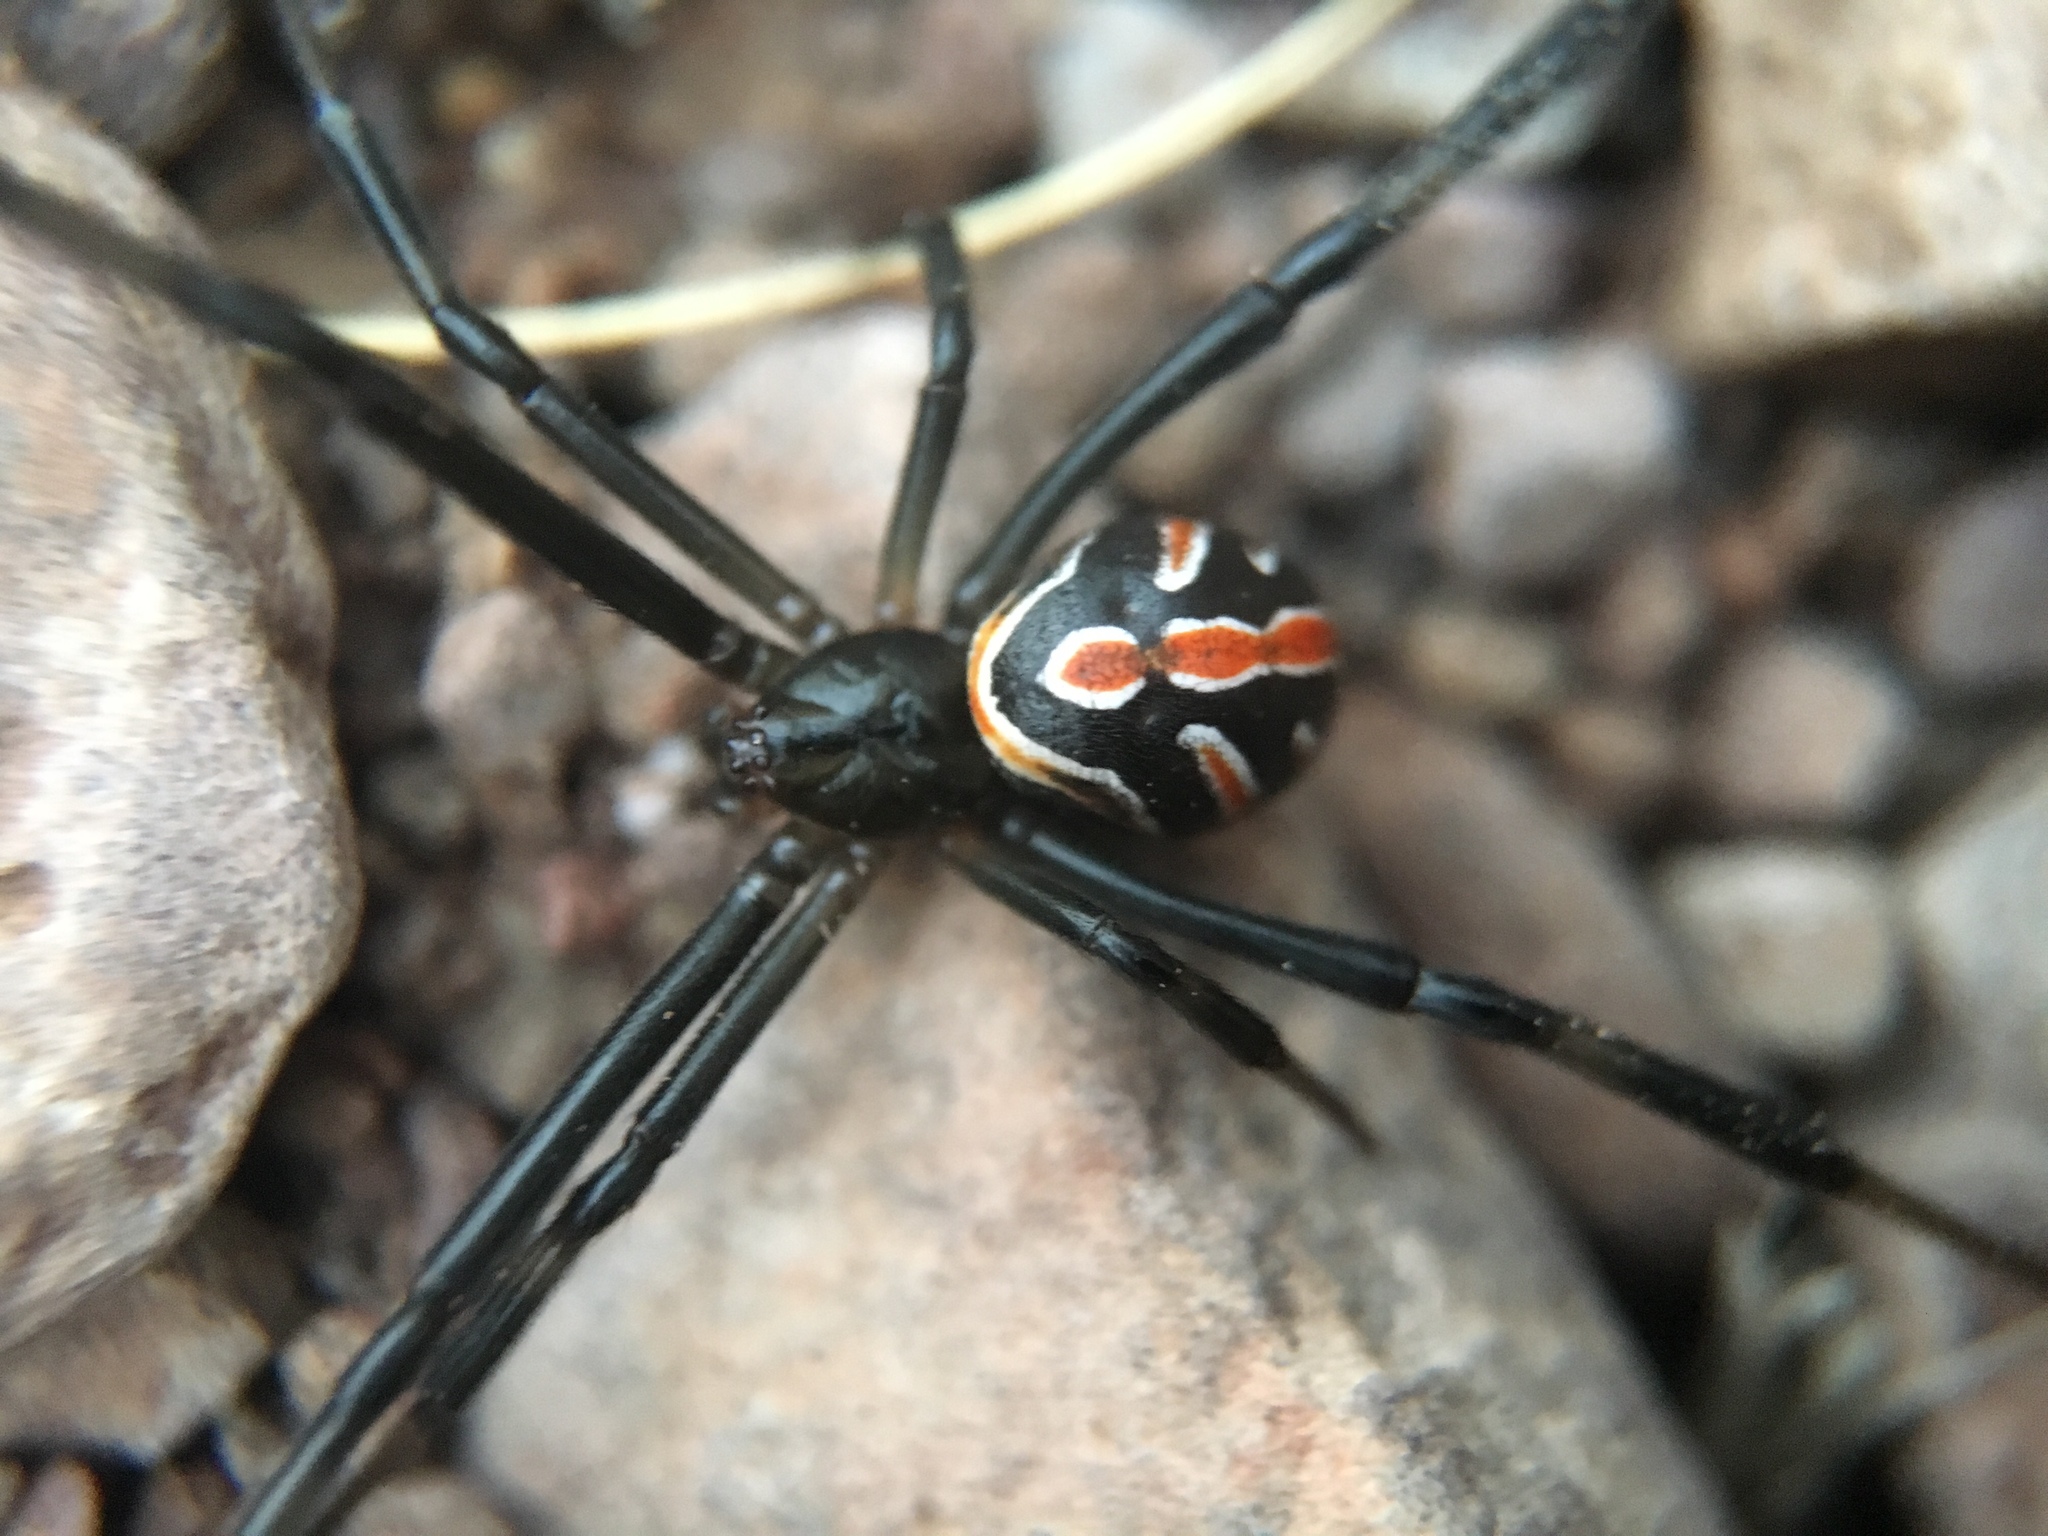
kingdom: Animalia
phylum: Arthropoda
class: Arachnida
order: Araneae
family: Theridiidae
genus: Latrodectus
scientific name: Latrodectus hesperus
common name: Western black widow
